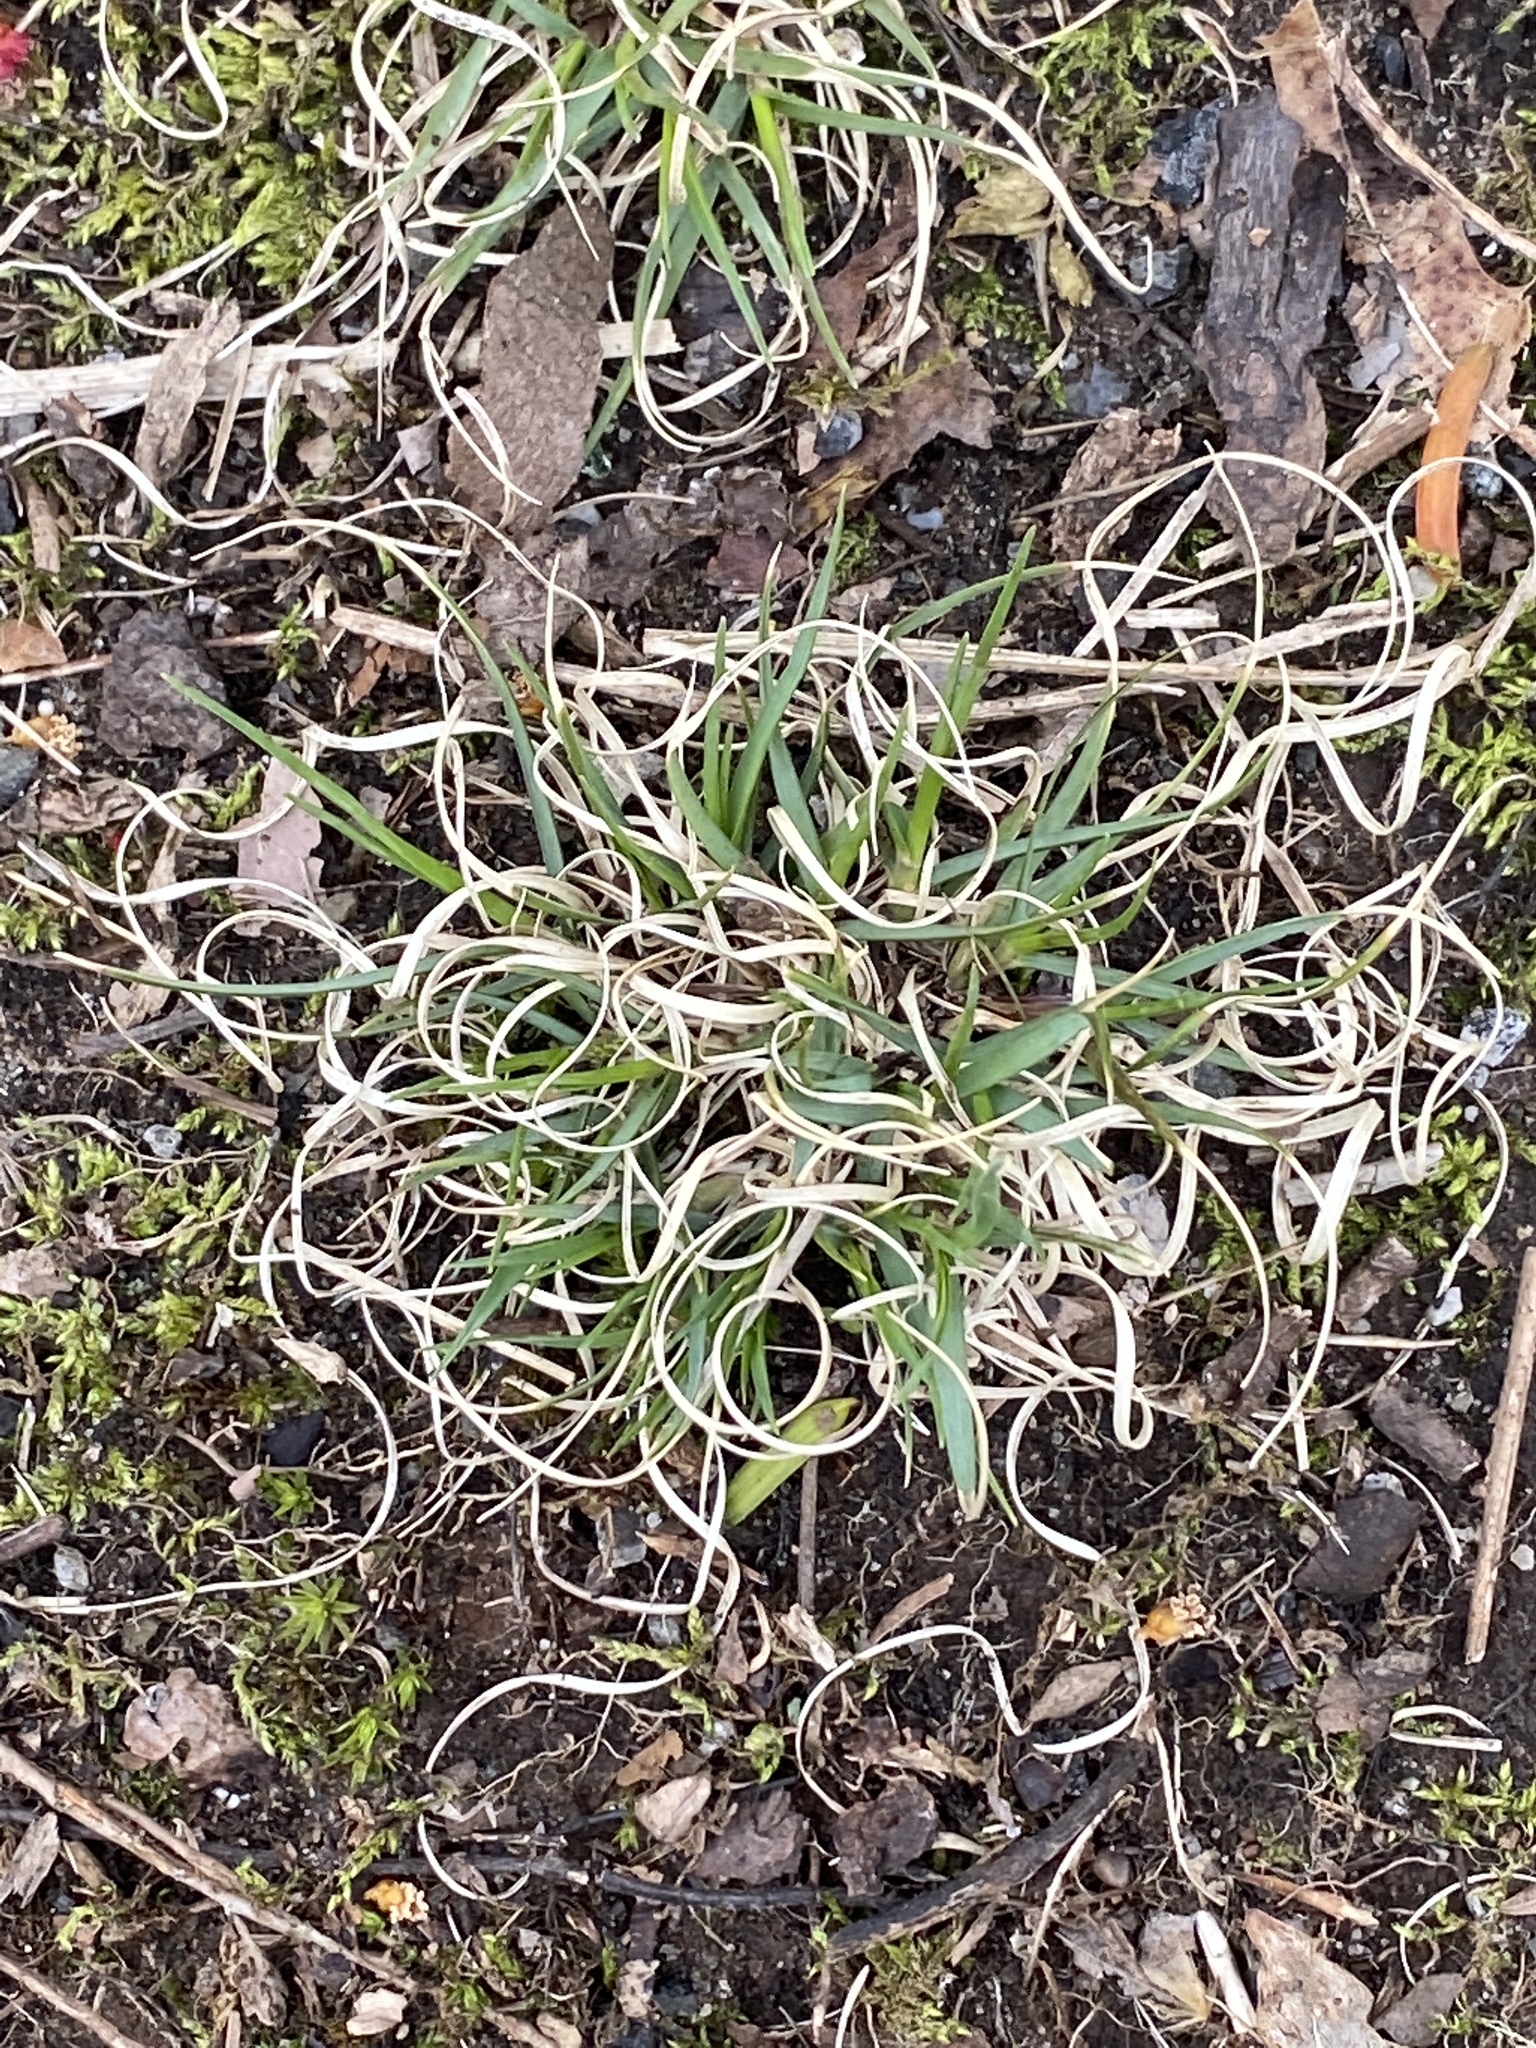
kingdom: Plantae
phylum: Tracheophyta
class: Liliopsida
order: Poales
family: Poaceae
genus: Danthonia
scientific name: Danthonia spicata
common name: Common wild oatgrass
